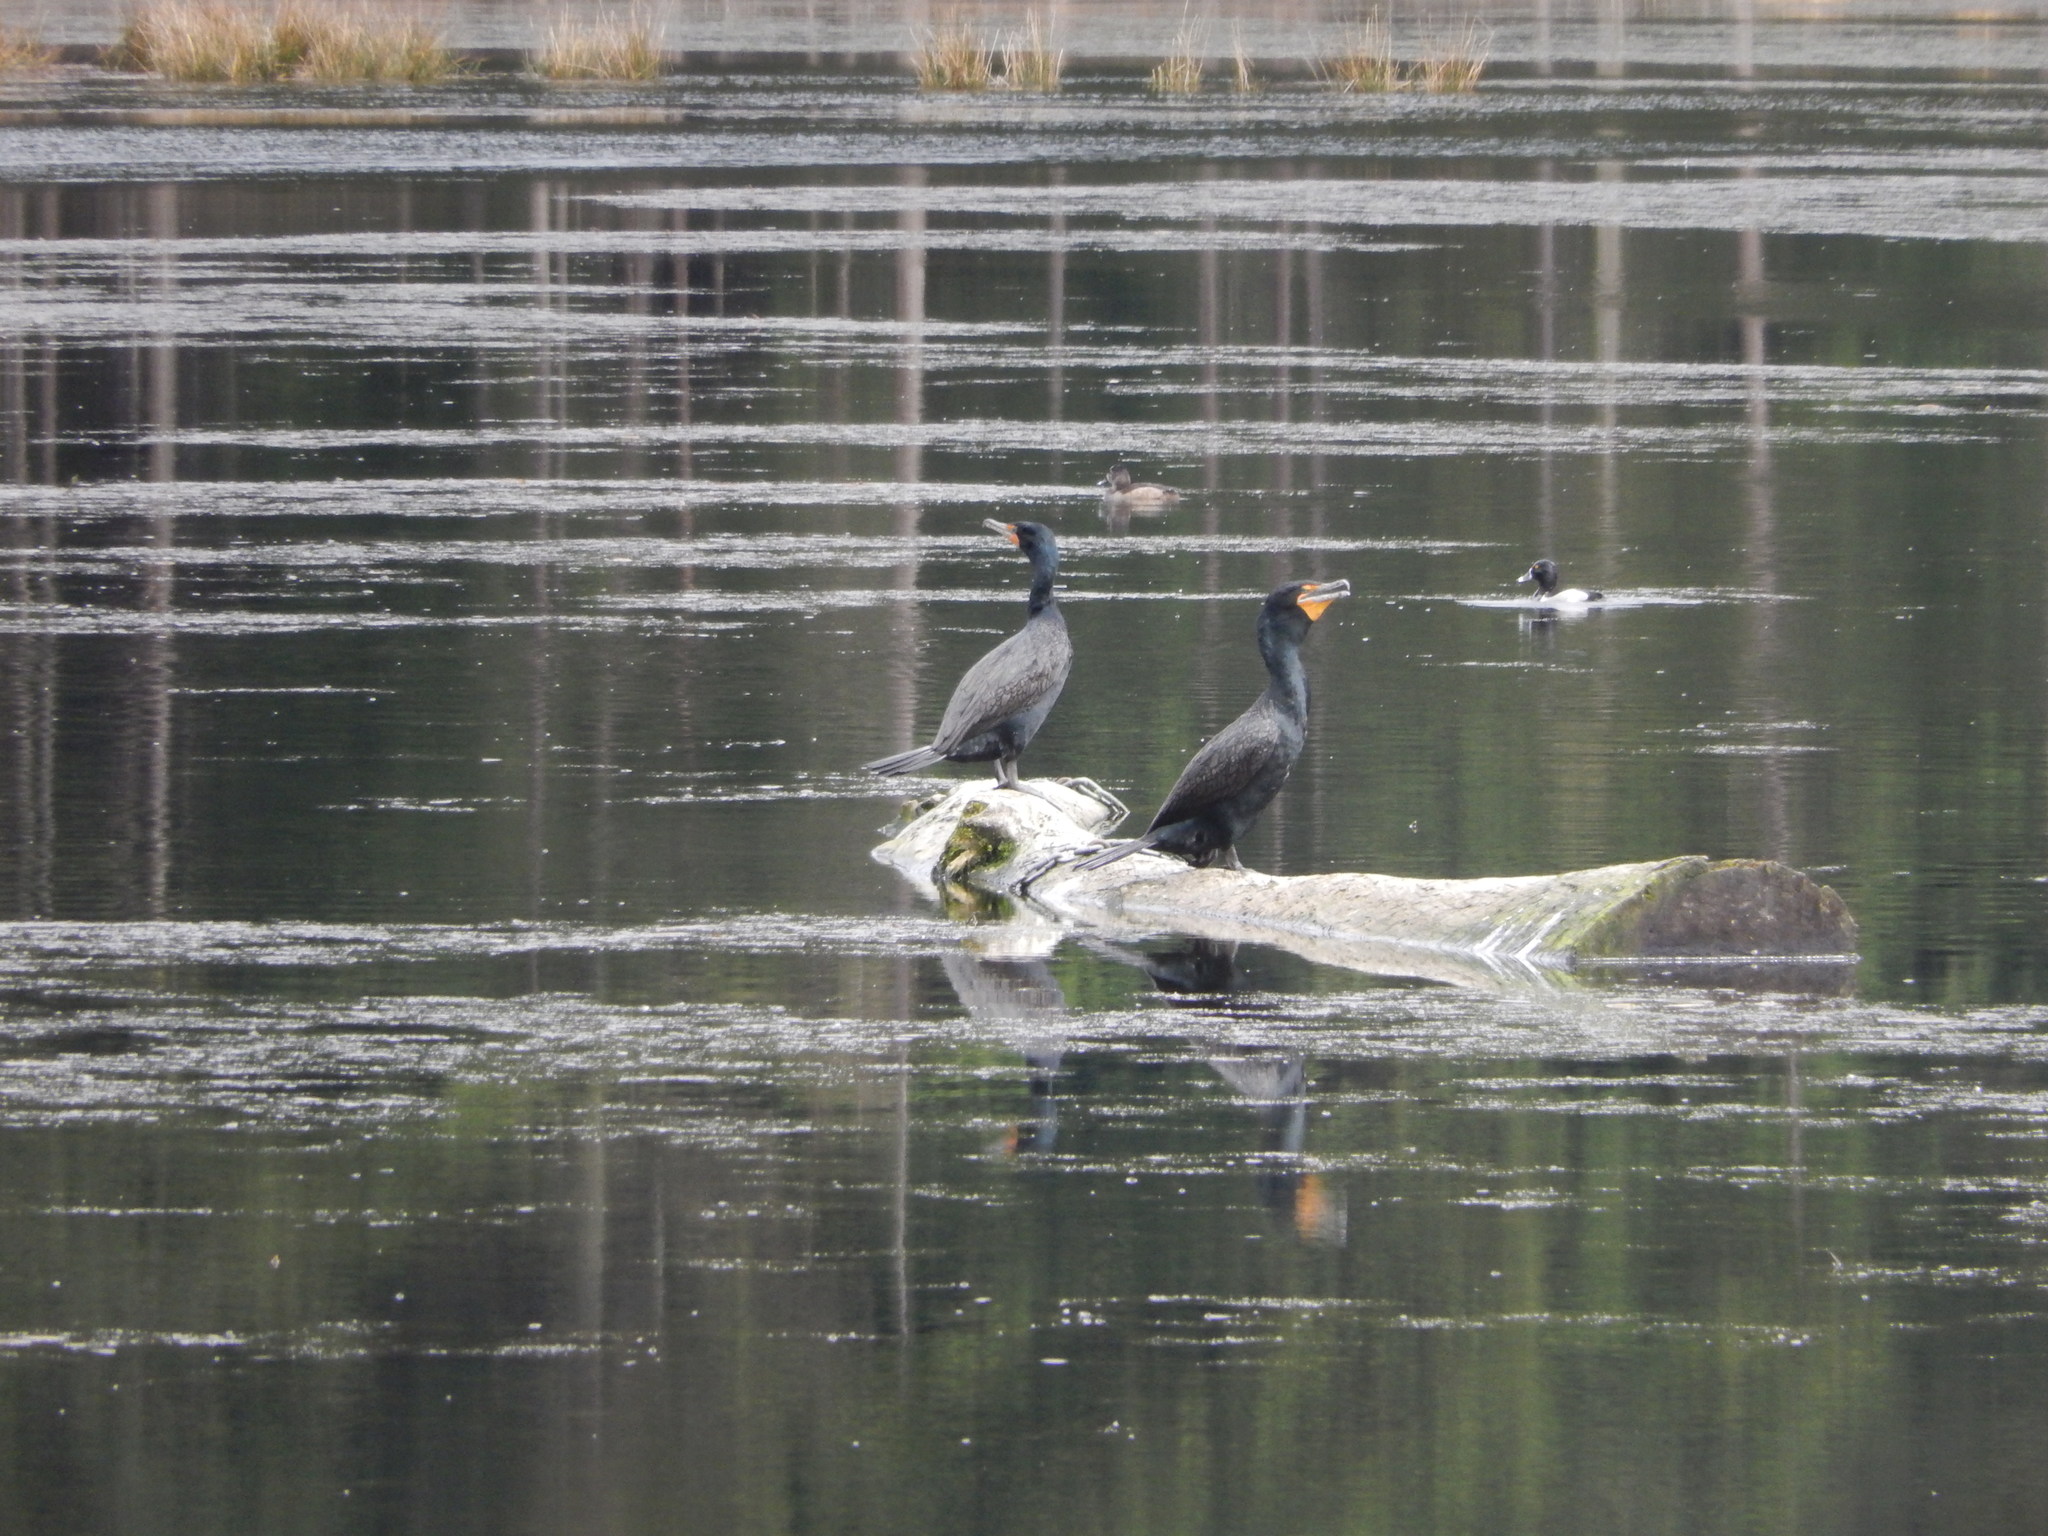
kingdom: Animalia
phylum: Chordata
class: Aves
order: Suliformes
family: Phalacrocoracidae
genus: Phalacrocorax
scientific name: Phalacrocorax auritus
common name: Double-crested cormorant
